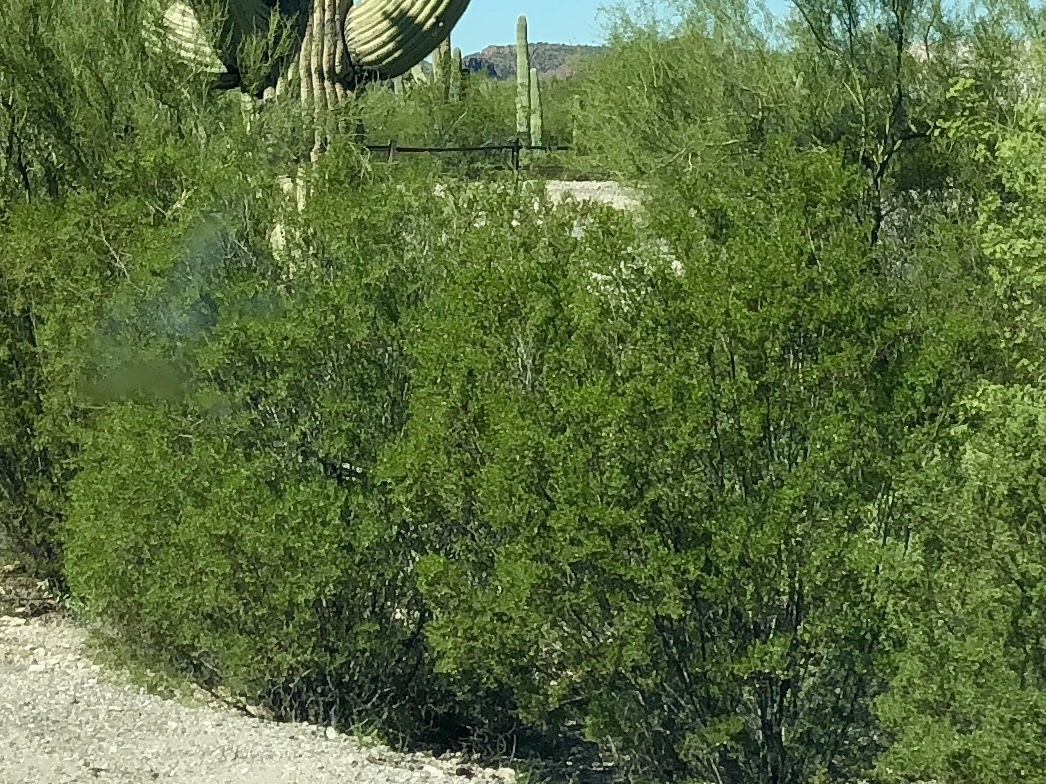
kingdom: Plantae
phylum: Tracheophyta
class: Magnoliopsida
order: Zygophyllales
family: Zygophyllaceae
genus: Larrea
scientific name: Larrea tridentata
